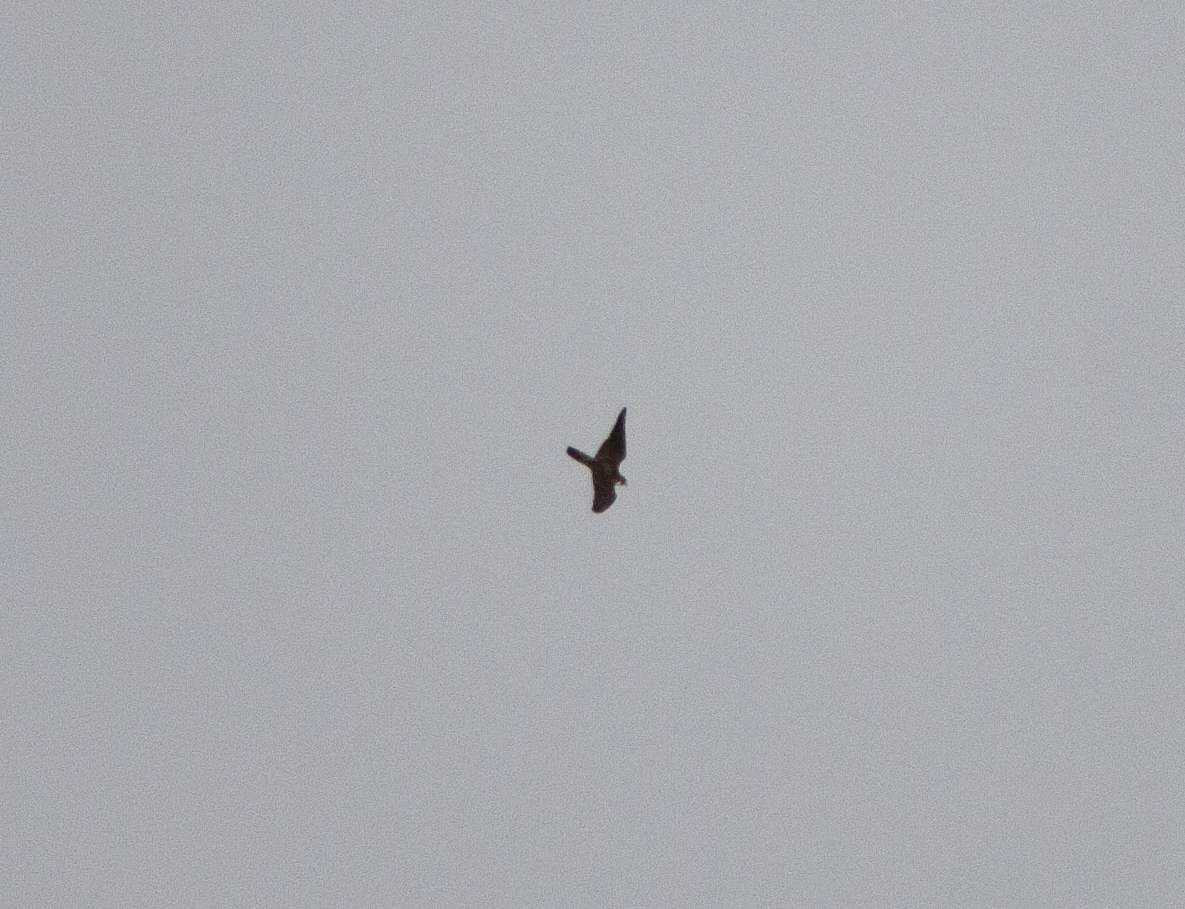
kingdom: Animalia
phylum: Chordata
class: Aves
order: Falconiformes
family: Falconidae
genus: Falco
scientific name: Falco peregrinus
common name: Peregrine falcon
